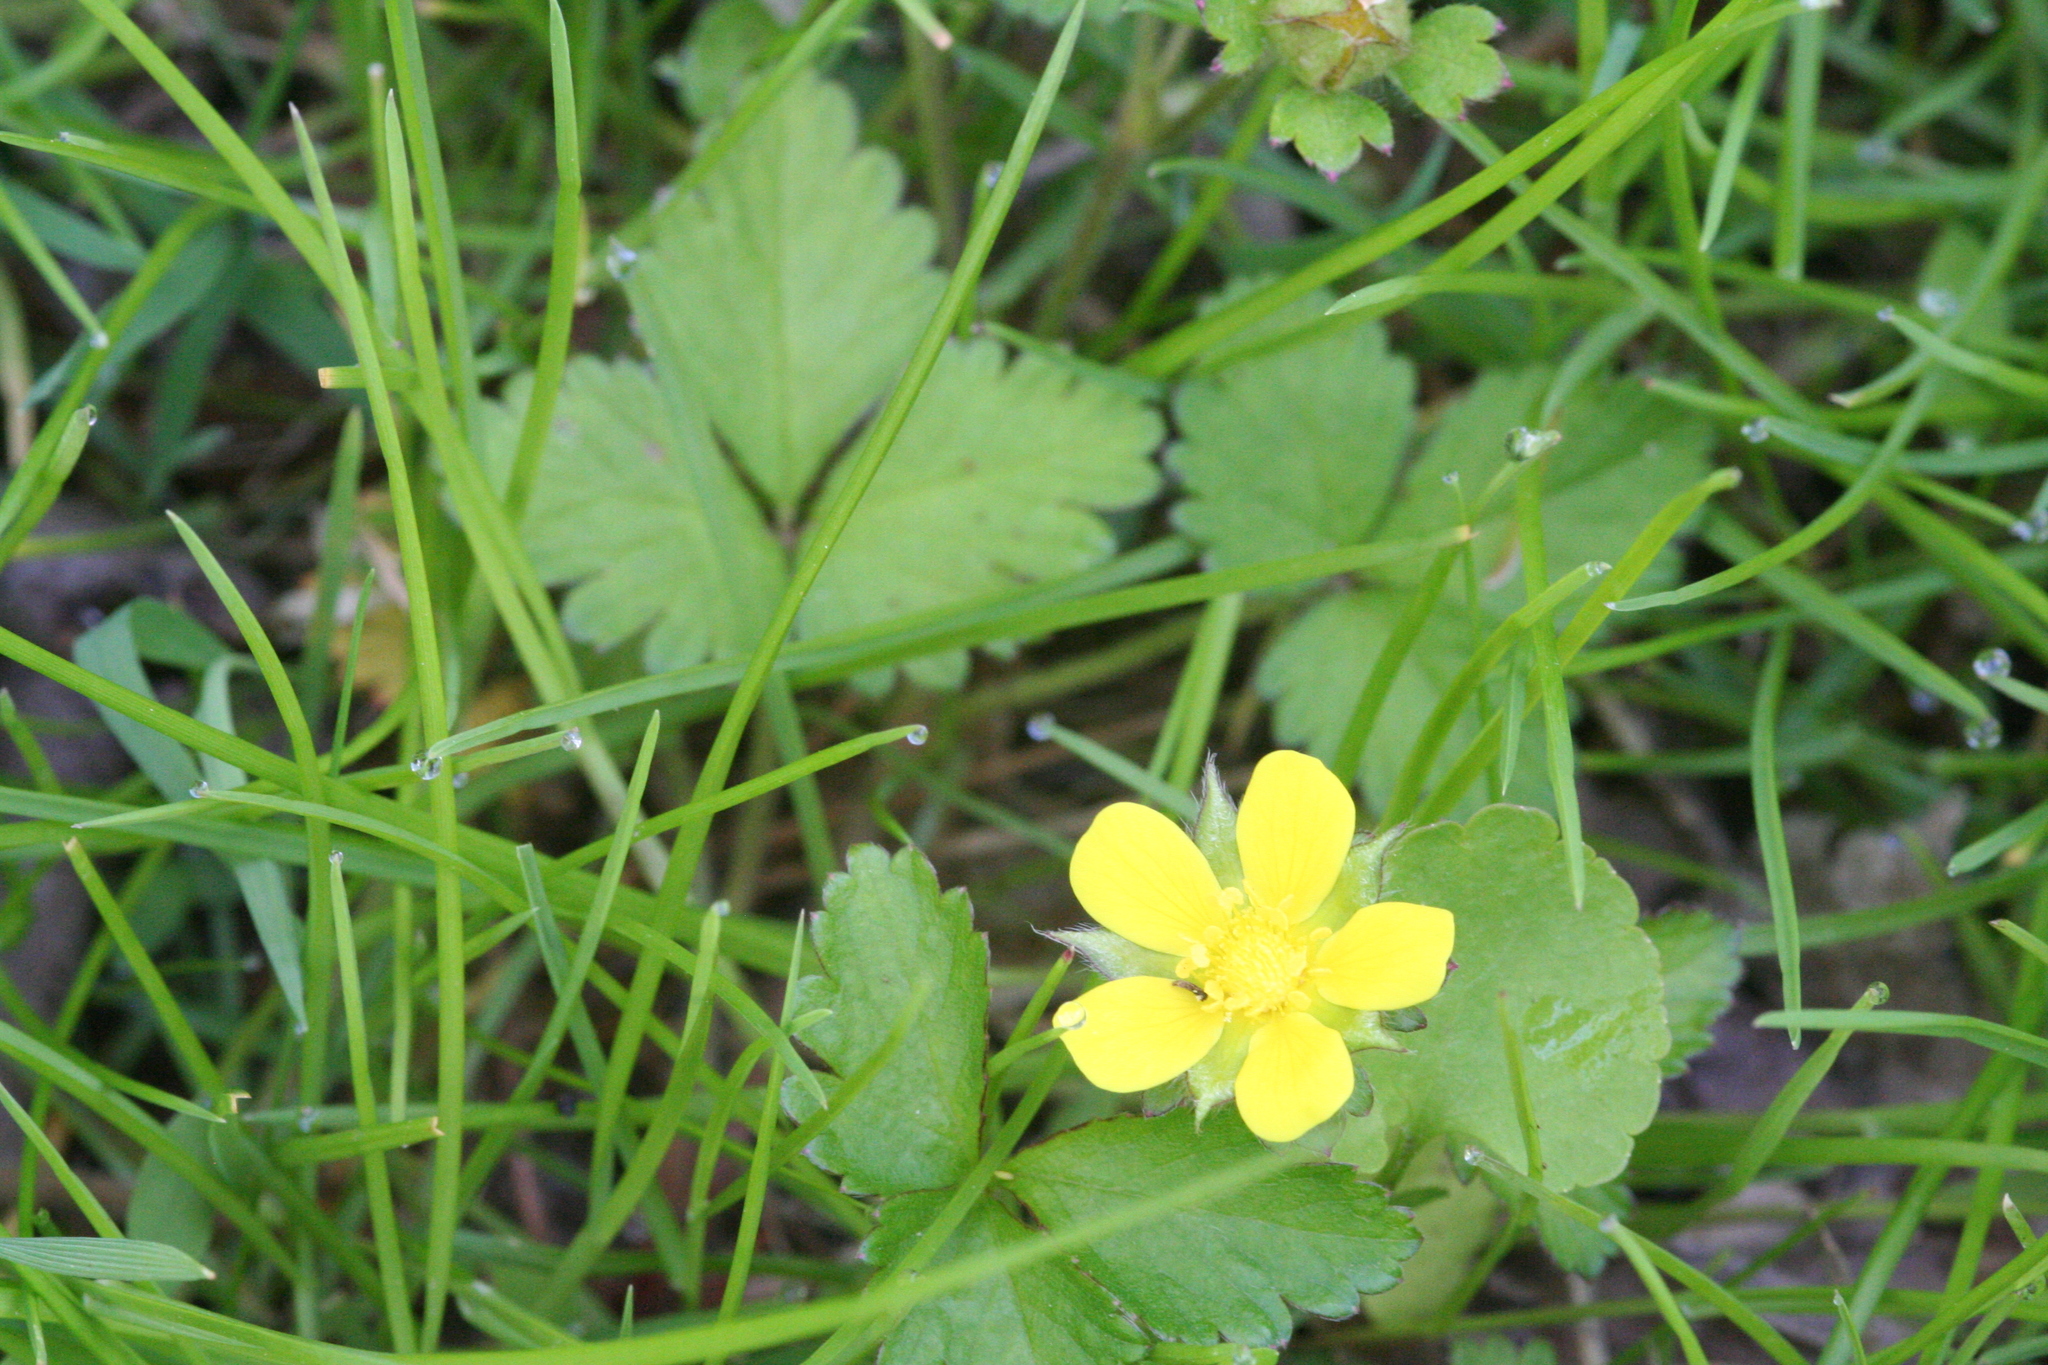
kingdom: Plantae
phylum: Tracheophyta
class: Magnoliopsida
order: Rosales
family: Rosaceae
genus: Potentilla
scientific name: Potentilla indica
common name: Yellow-flowered strawberry
